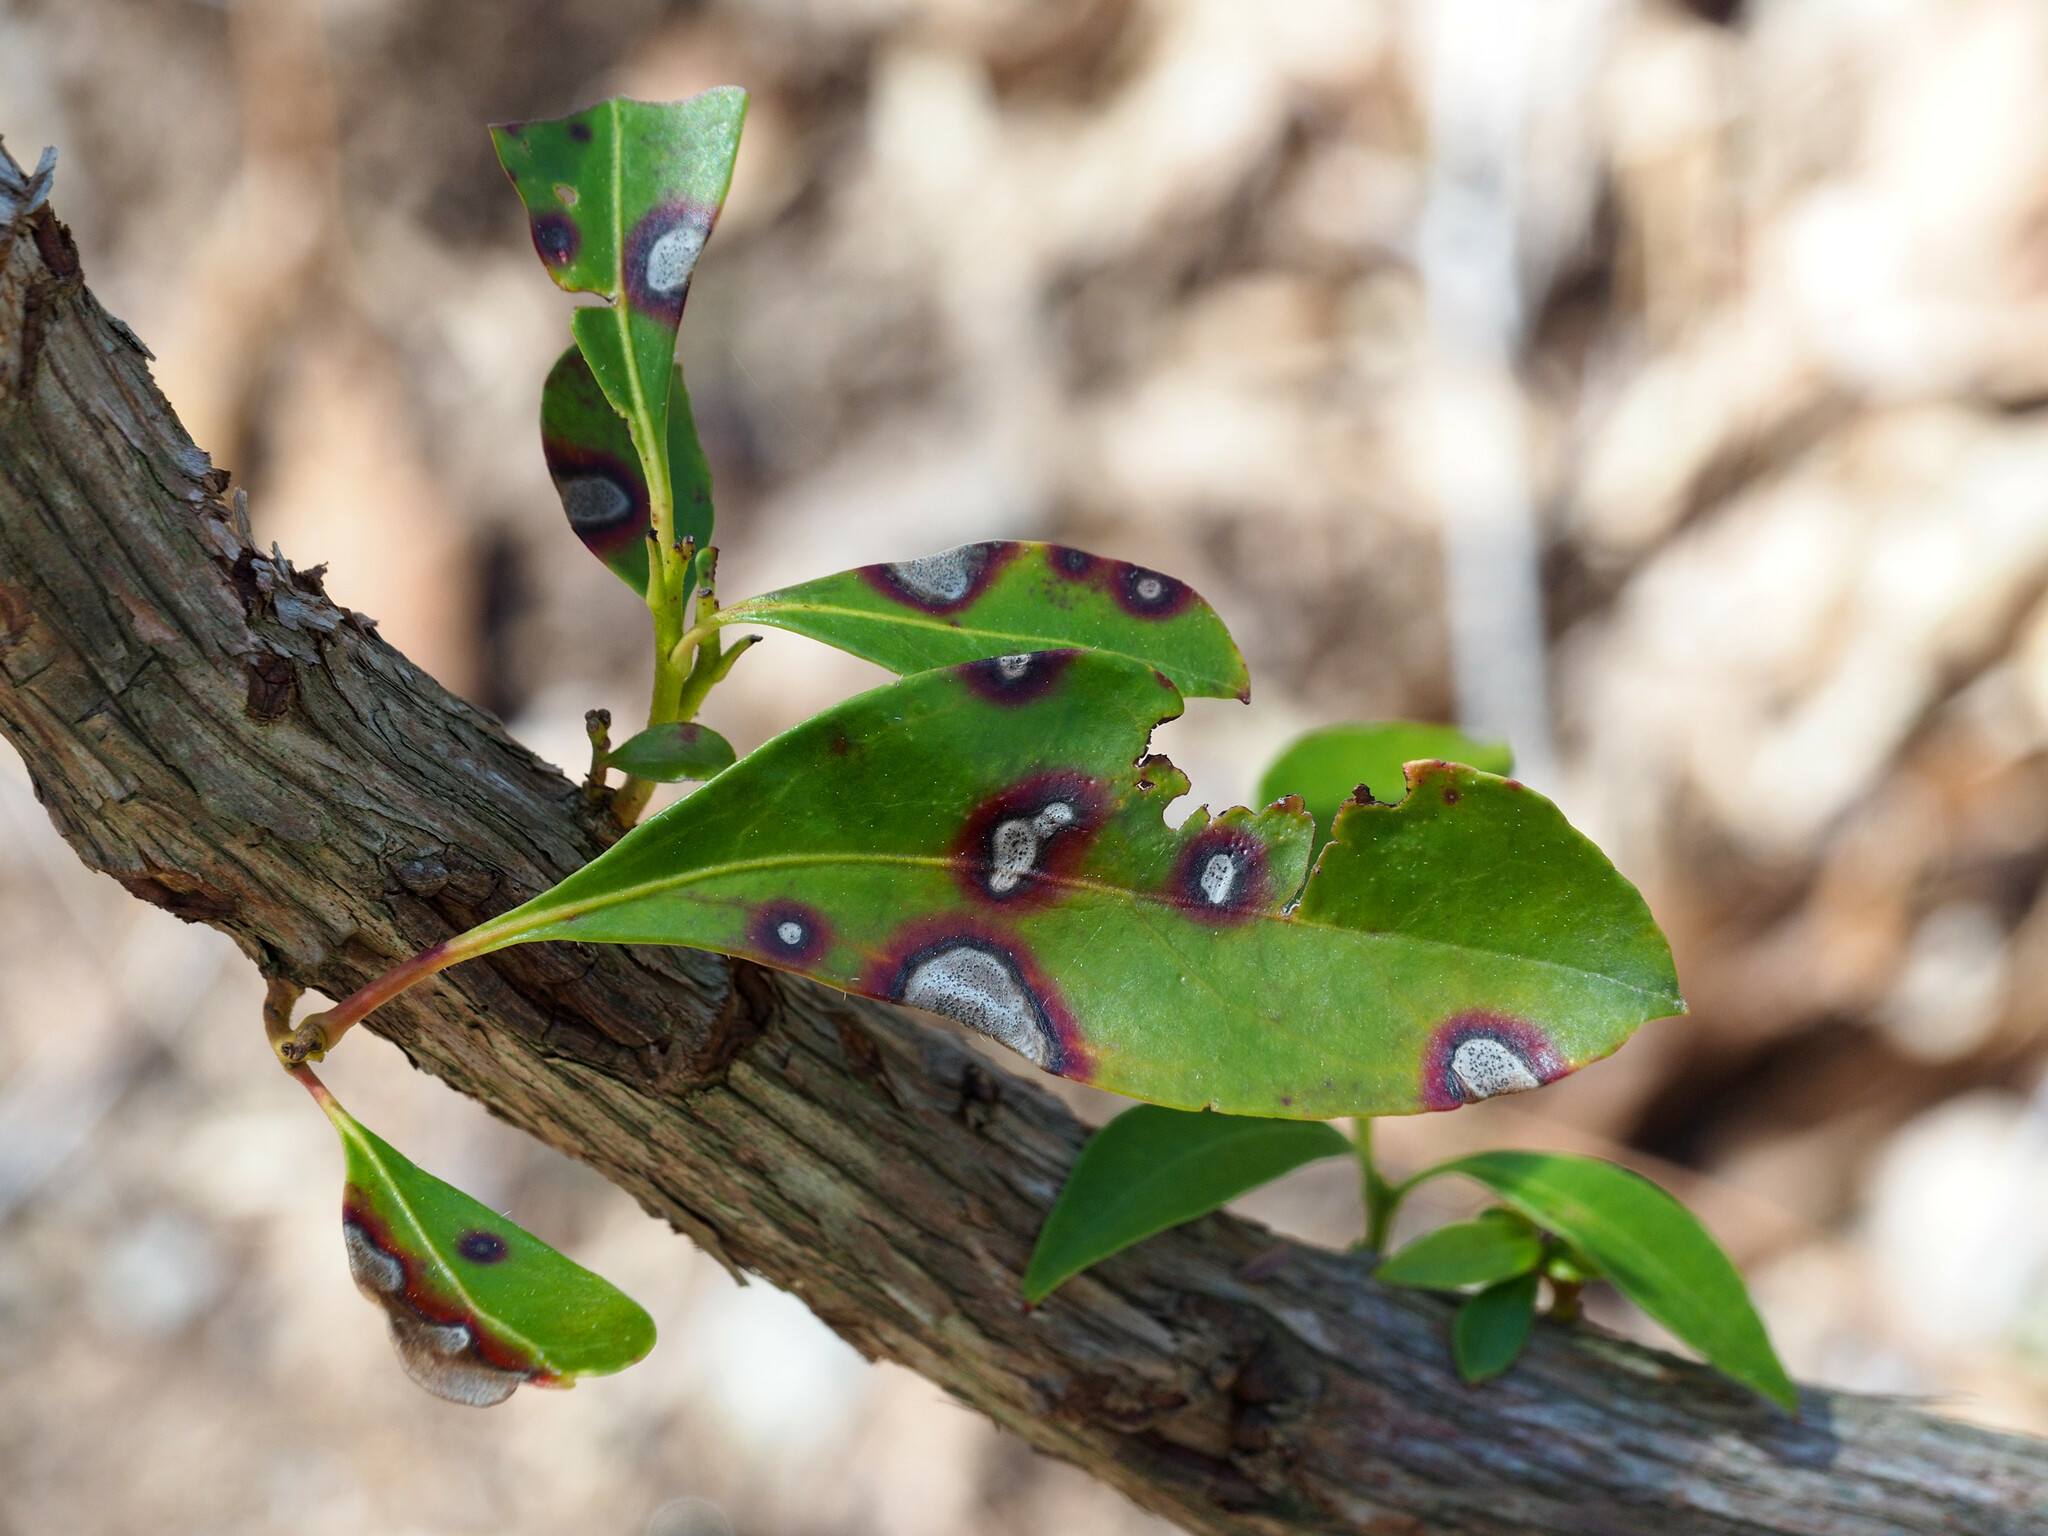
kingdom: Fungi
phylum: Ascomycota
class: Dothideomycetes
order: Mycosphaerellales
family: Mycosphaerellaceae
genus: Mycosphaerella
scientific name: Mycosphaerella colorata
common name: Mountain laurel leaf spot
